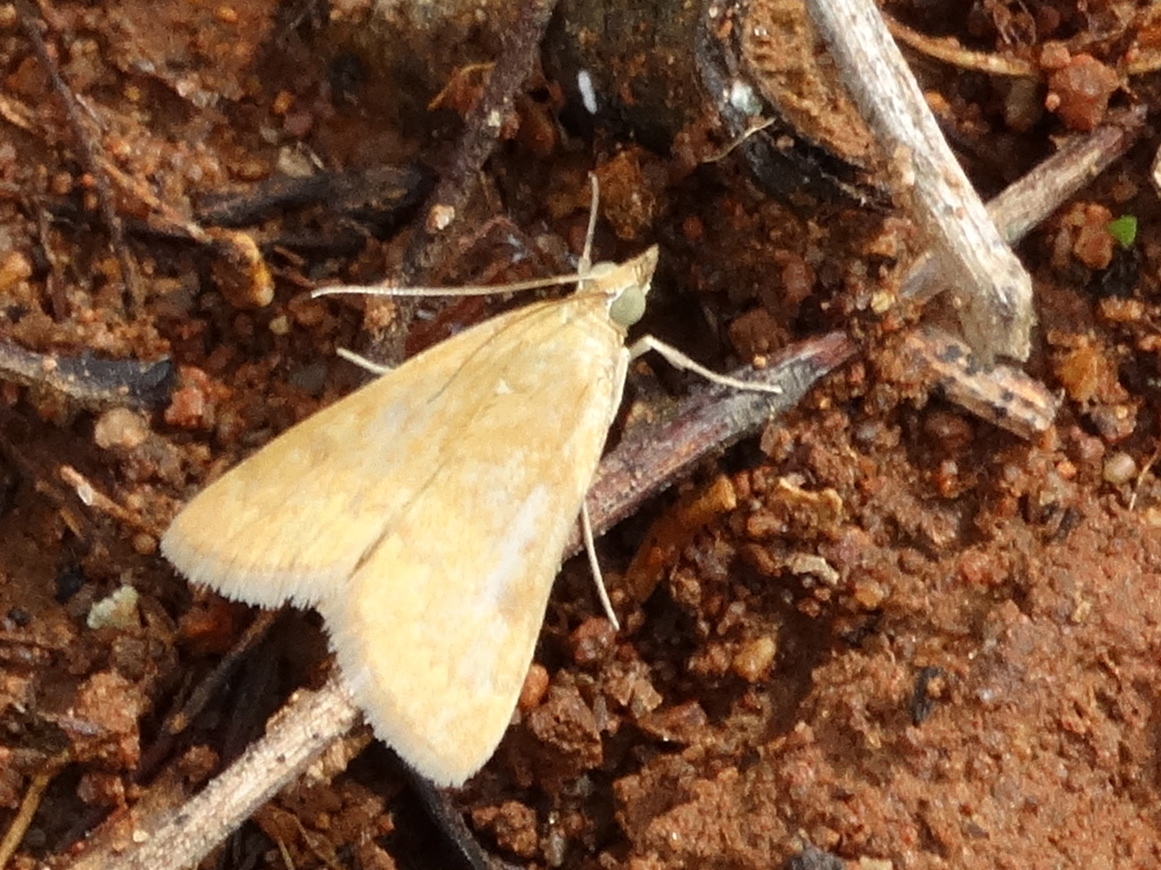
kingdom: Animalia
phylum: Arthropoda
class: Insecta
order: Lepidoptera
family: Crambidae
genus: Achyra
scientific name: Achyra
